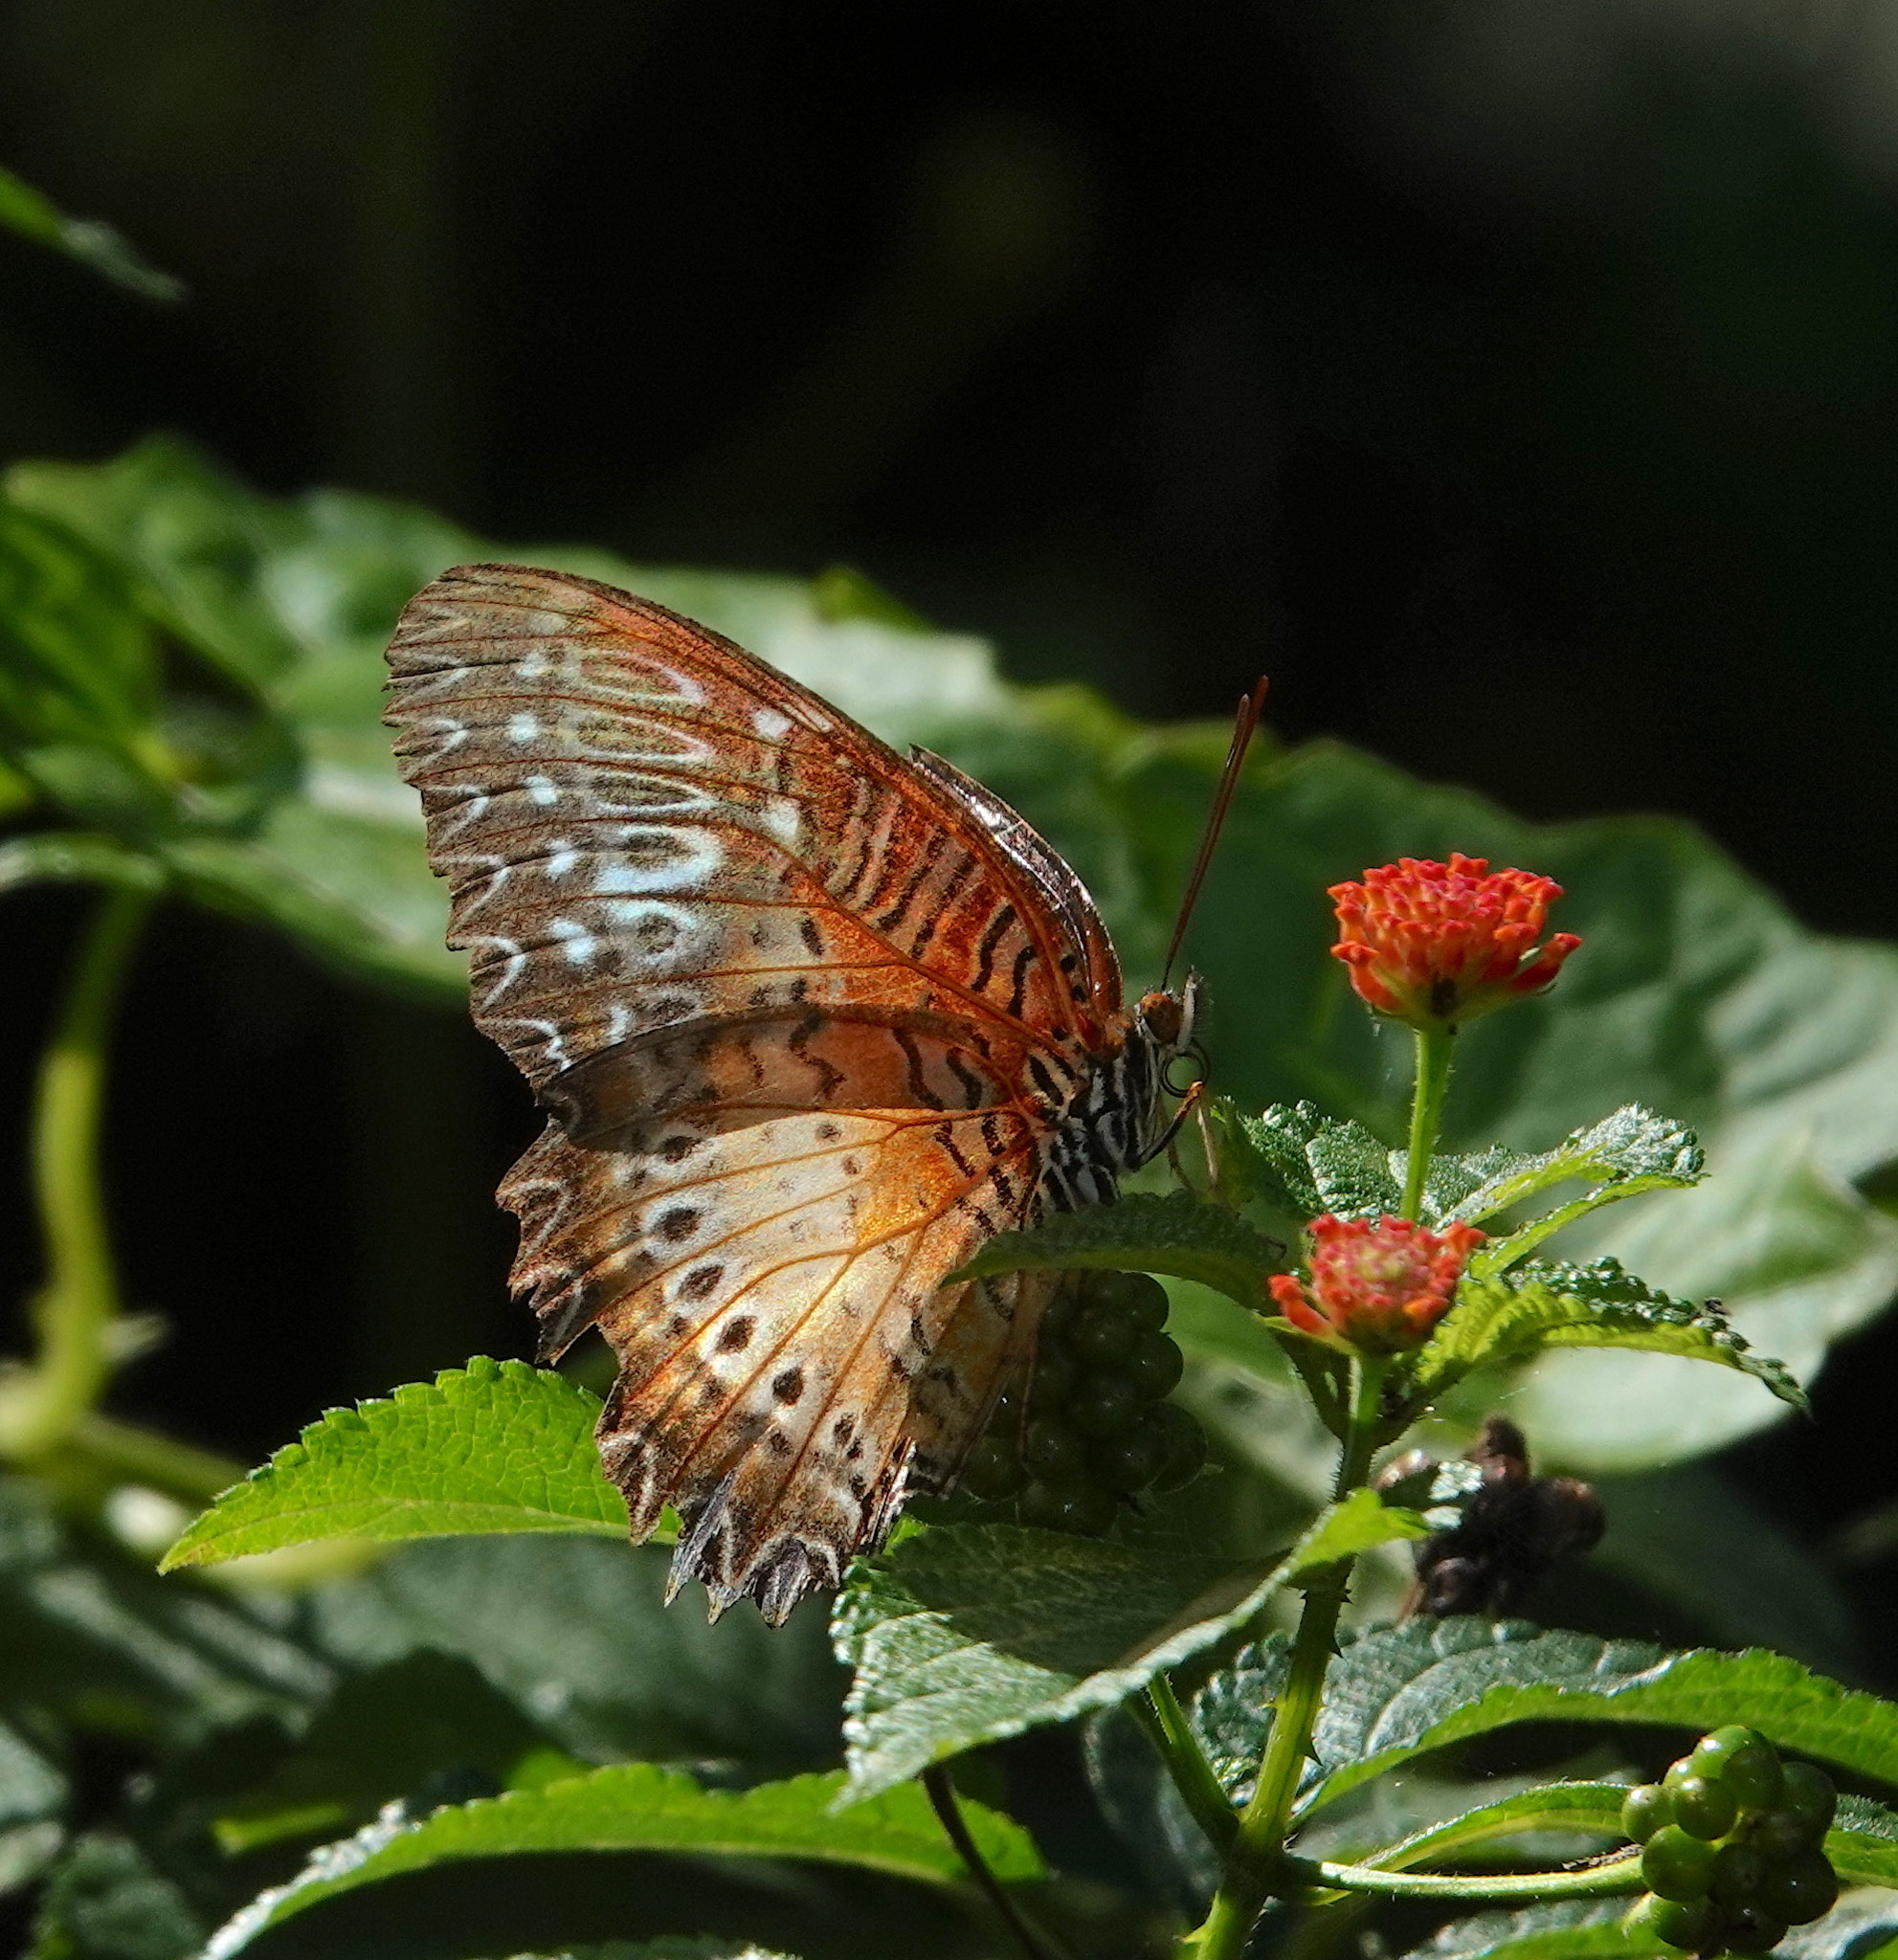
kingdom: Animalia
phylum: Arthropoda
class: Insecta
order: Lepidoptera
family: Nymphalidae
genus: Cethosia
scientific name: Cethosia biblis
